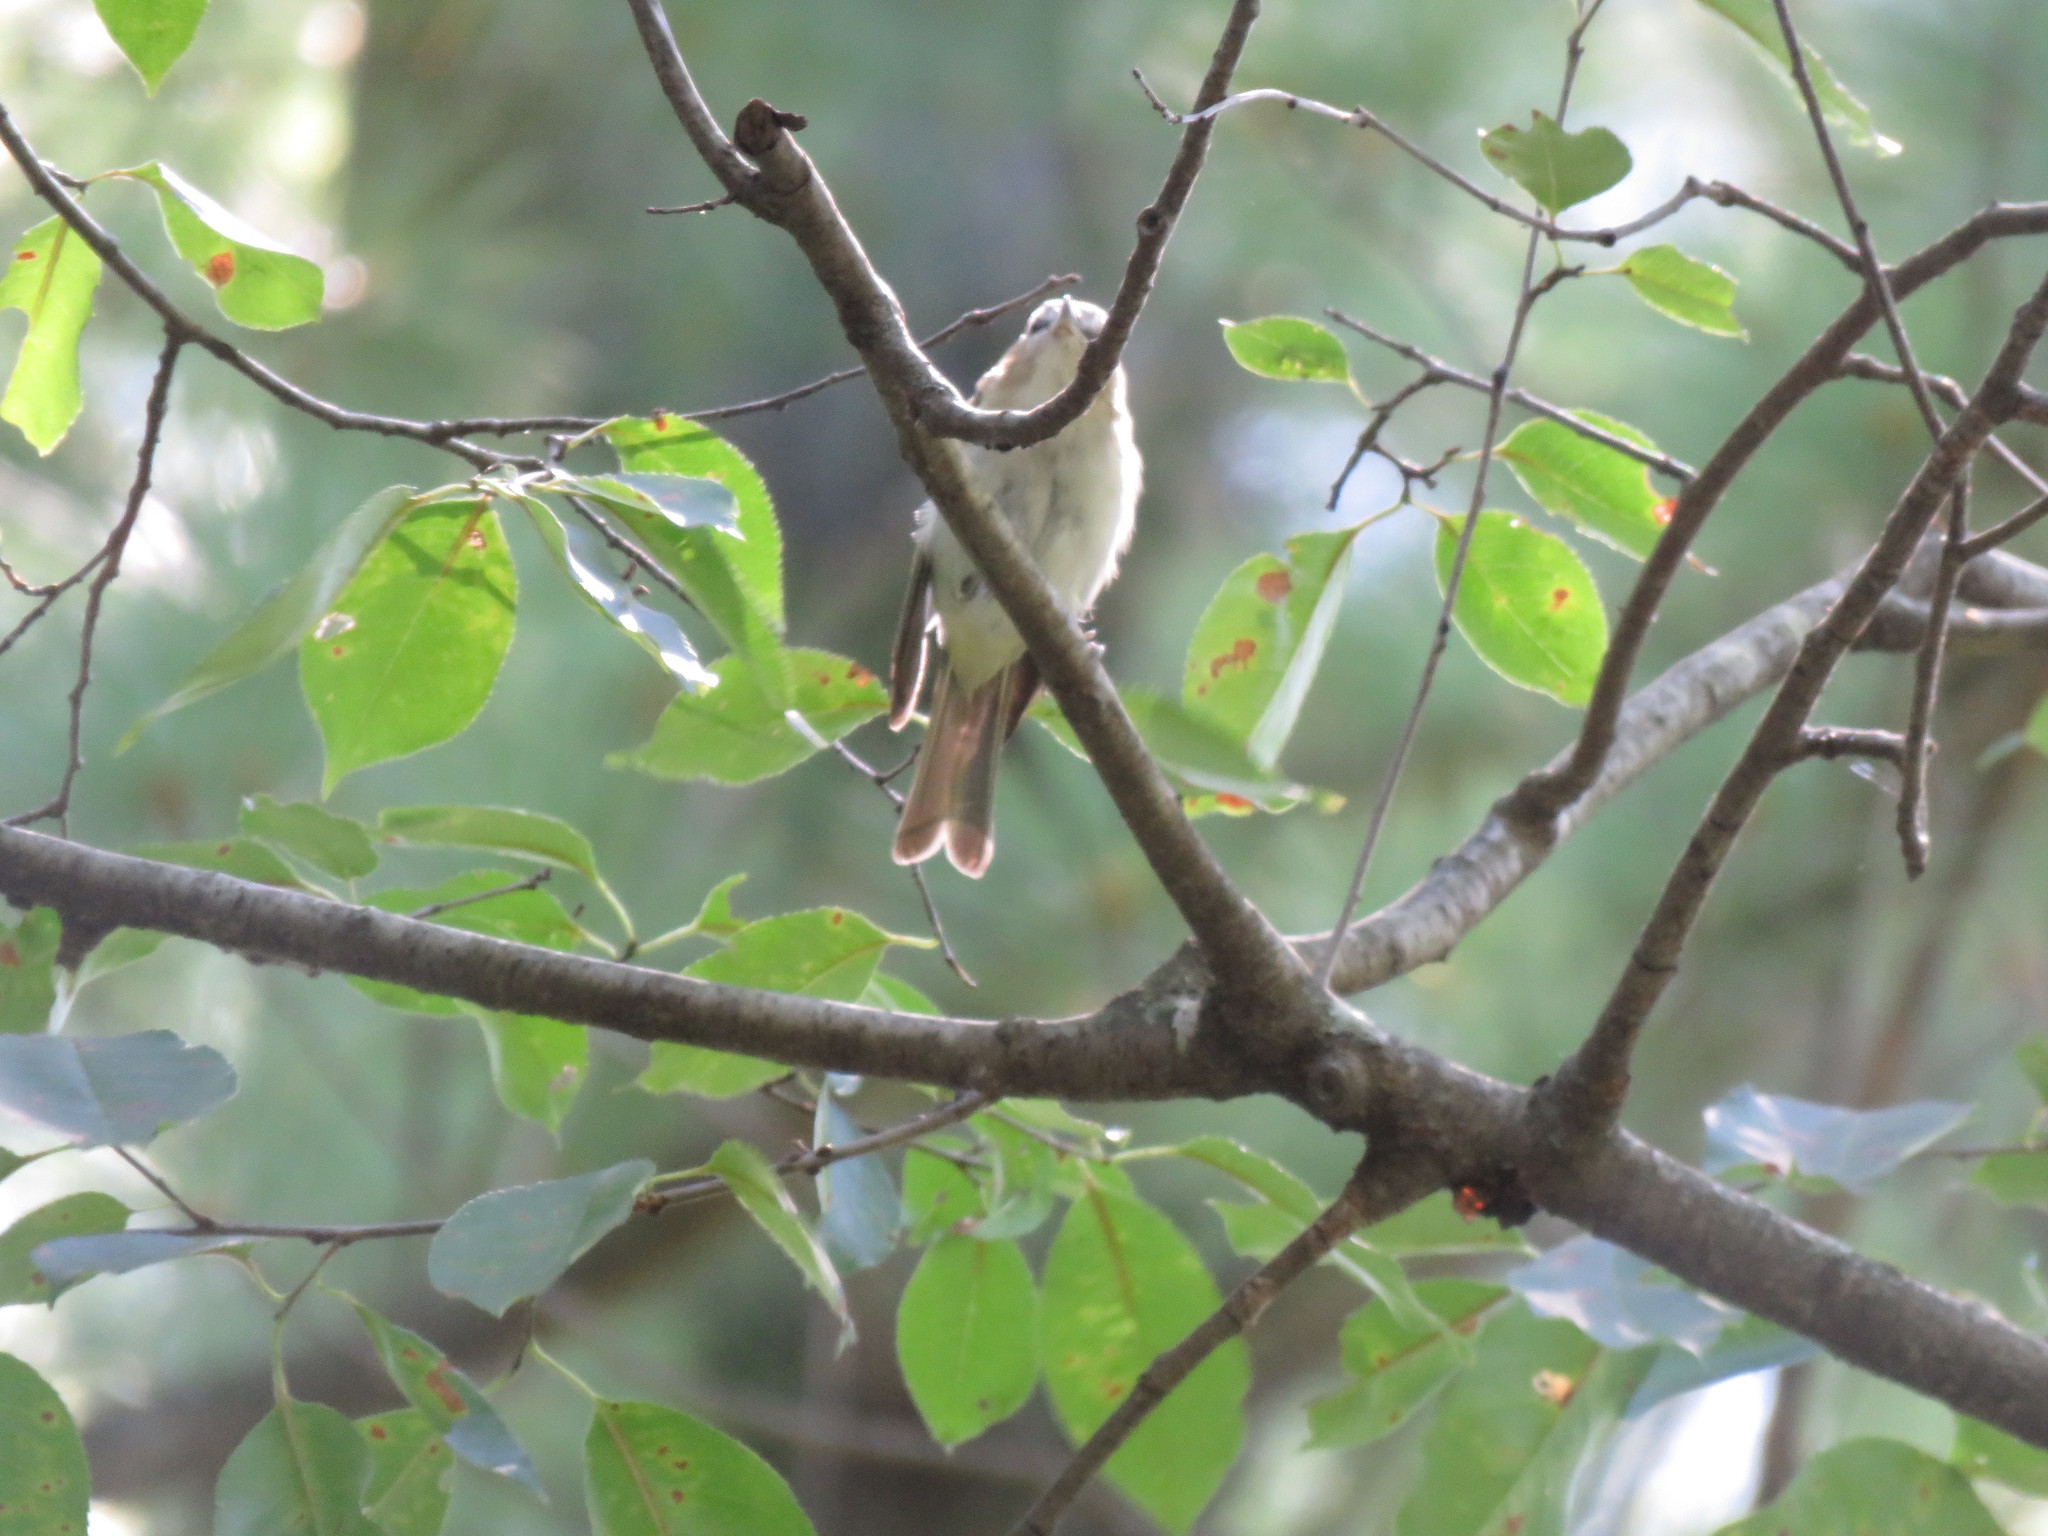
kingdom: Animalia
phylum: Chordata
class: Aves
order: Passeriformes
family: Vireonidae
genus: Vireo
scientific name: Vireo gilvus
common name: Warbling vireo
